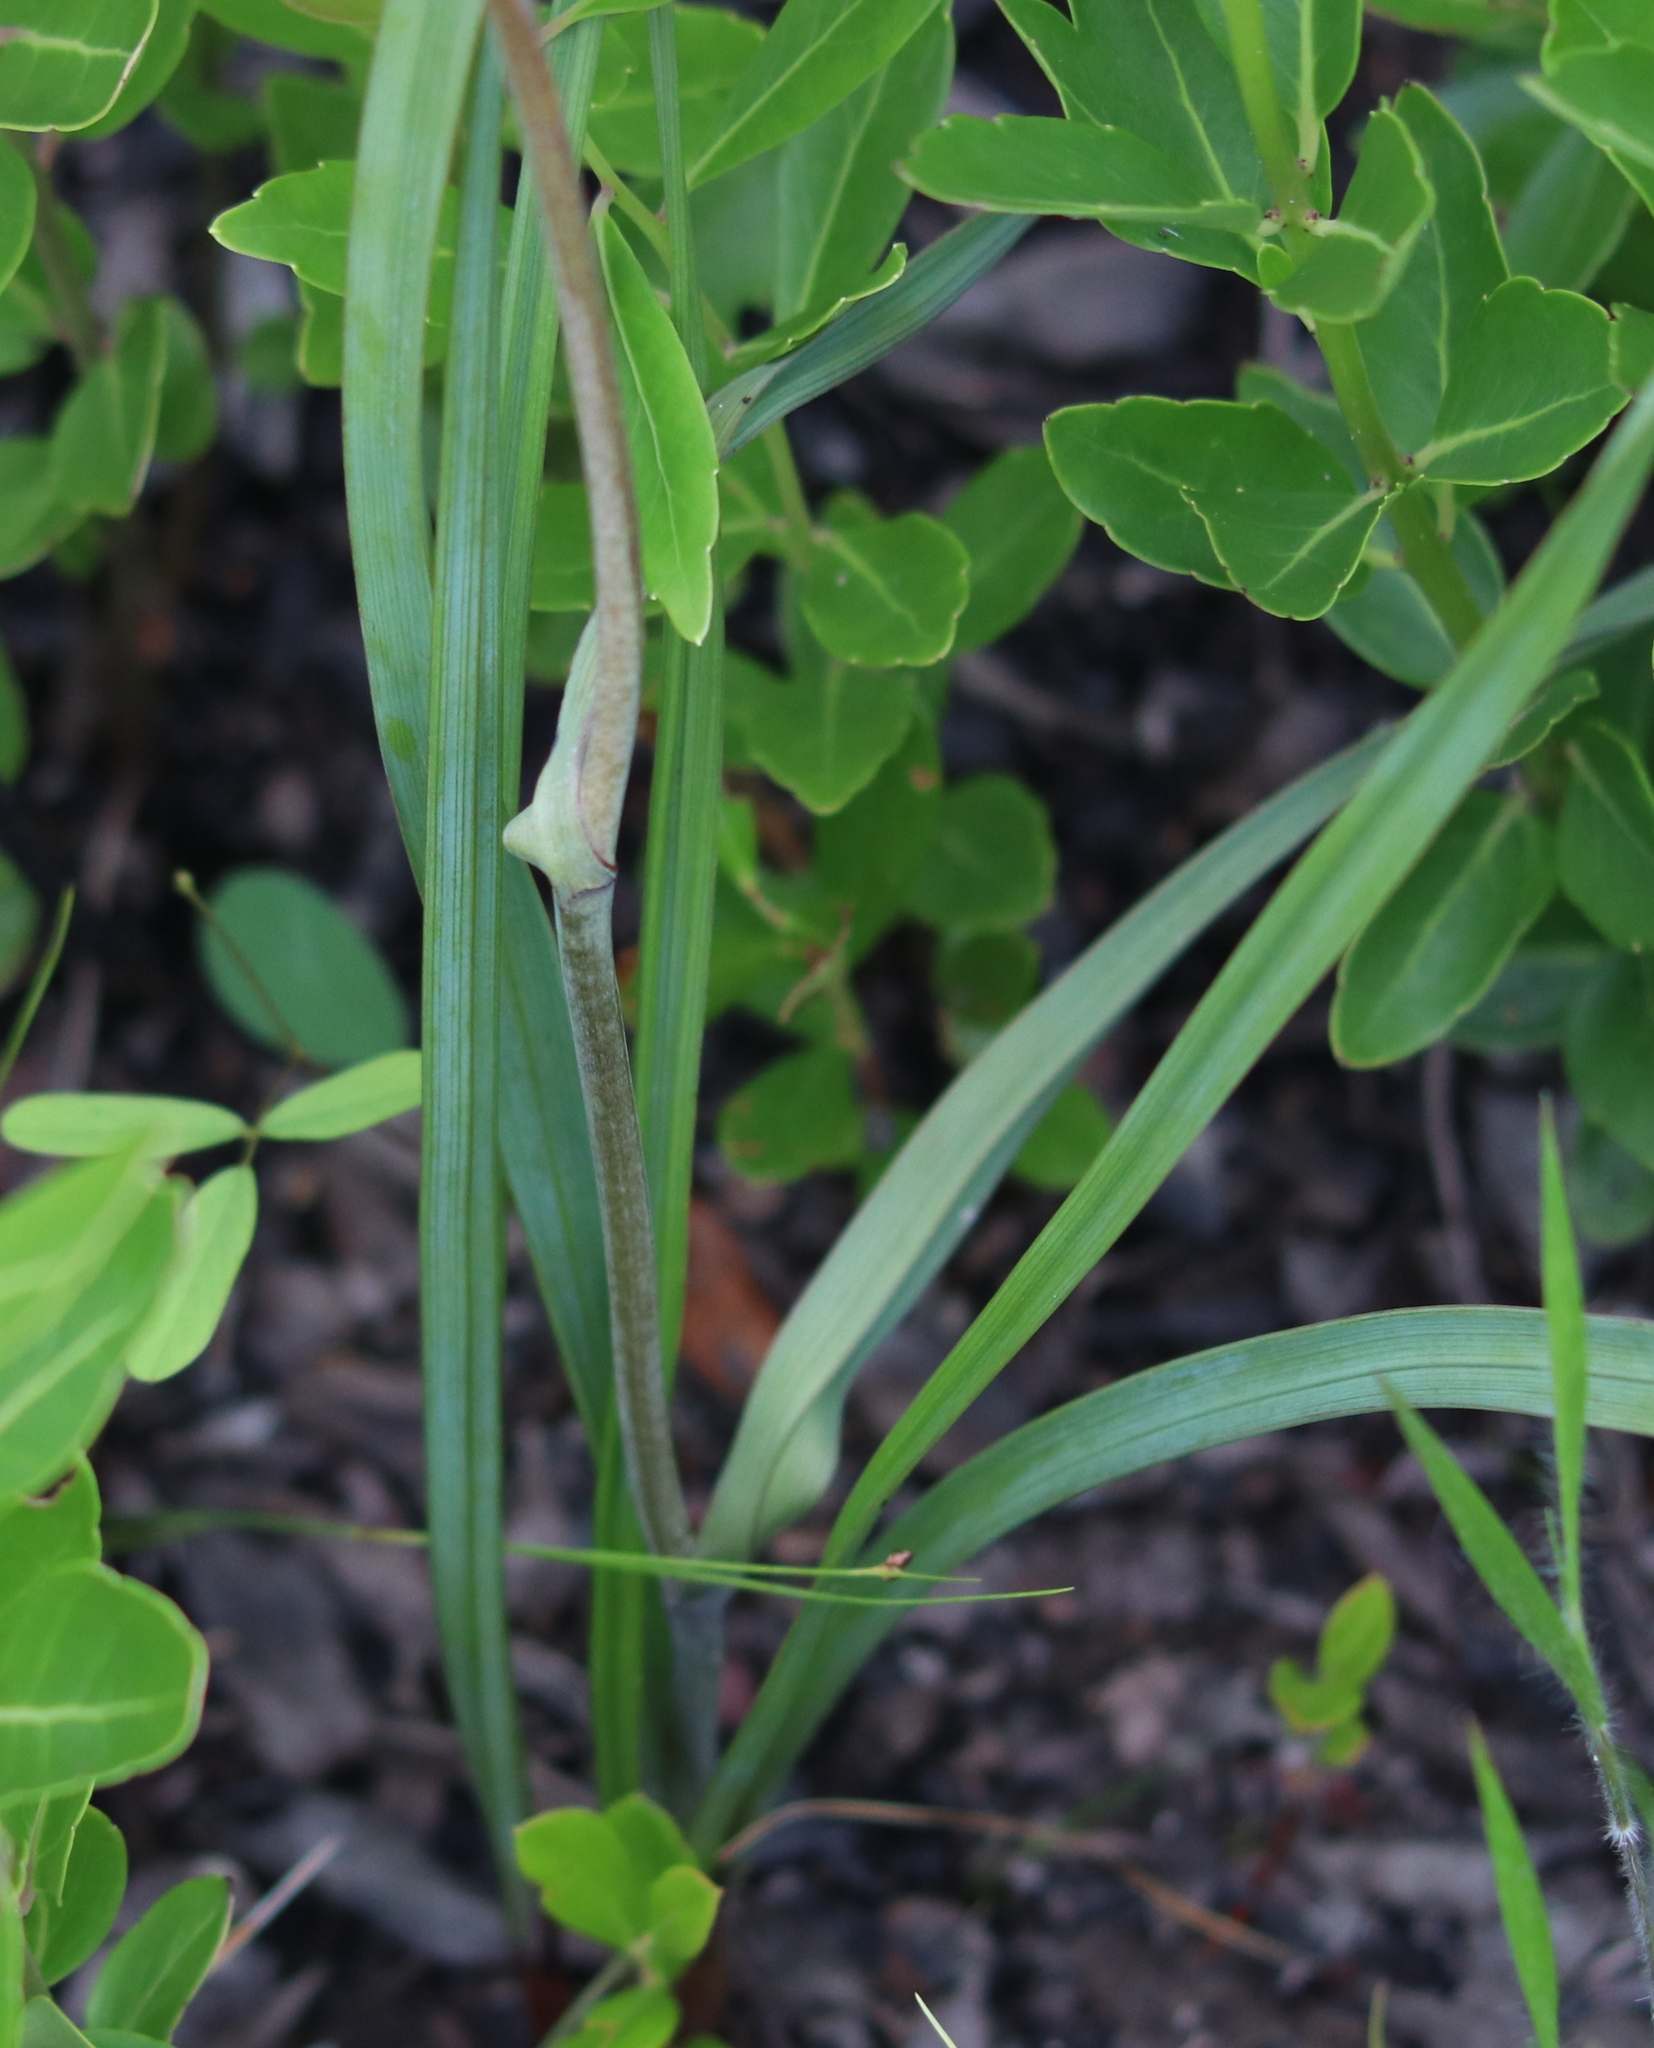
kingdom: Plantae
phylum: Tracheophyta
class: Liliopsida
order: Liliales
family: Melanthiaceae
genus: Stenanthium
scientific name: Stenanthium densum
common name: Crow-poison
